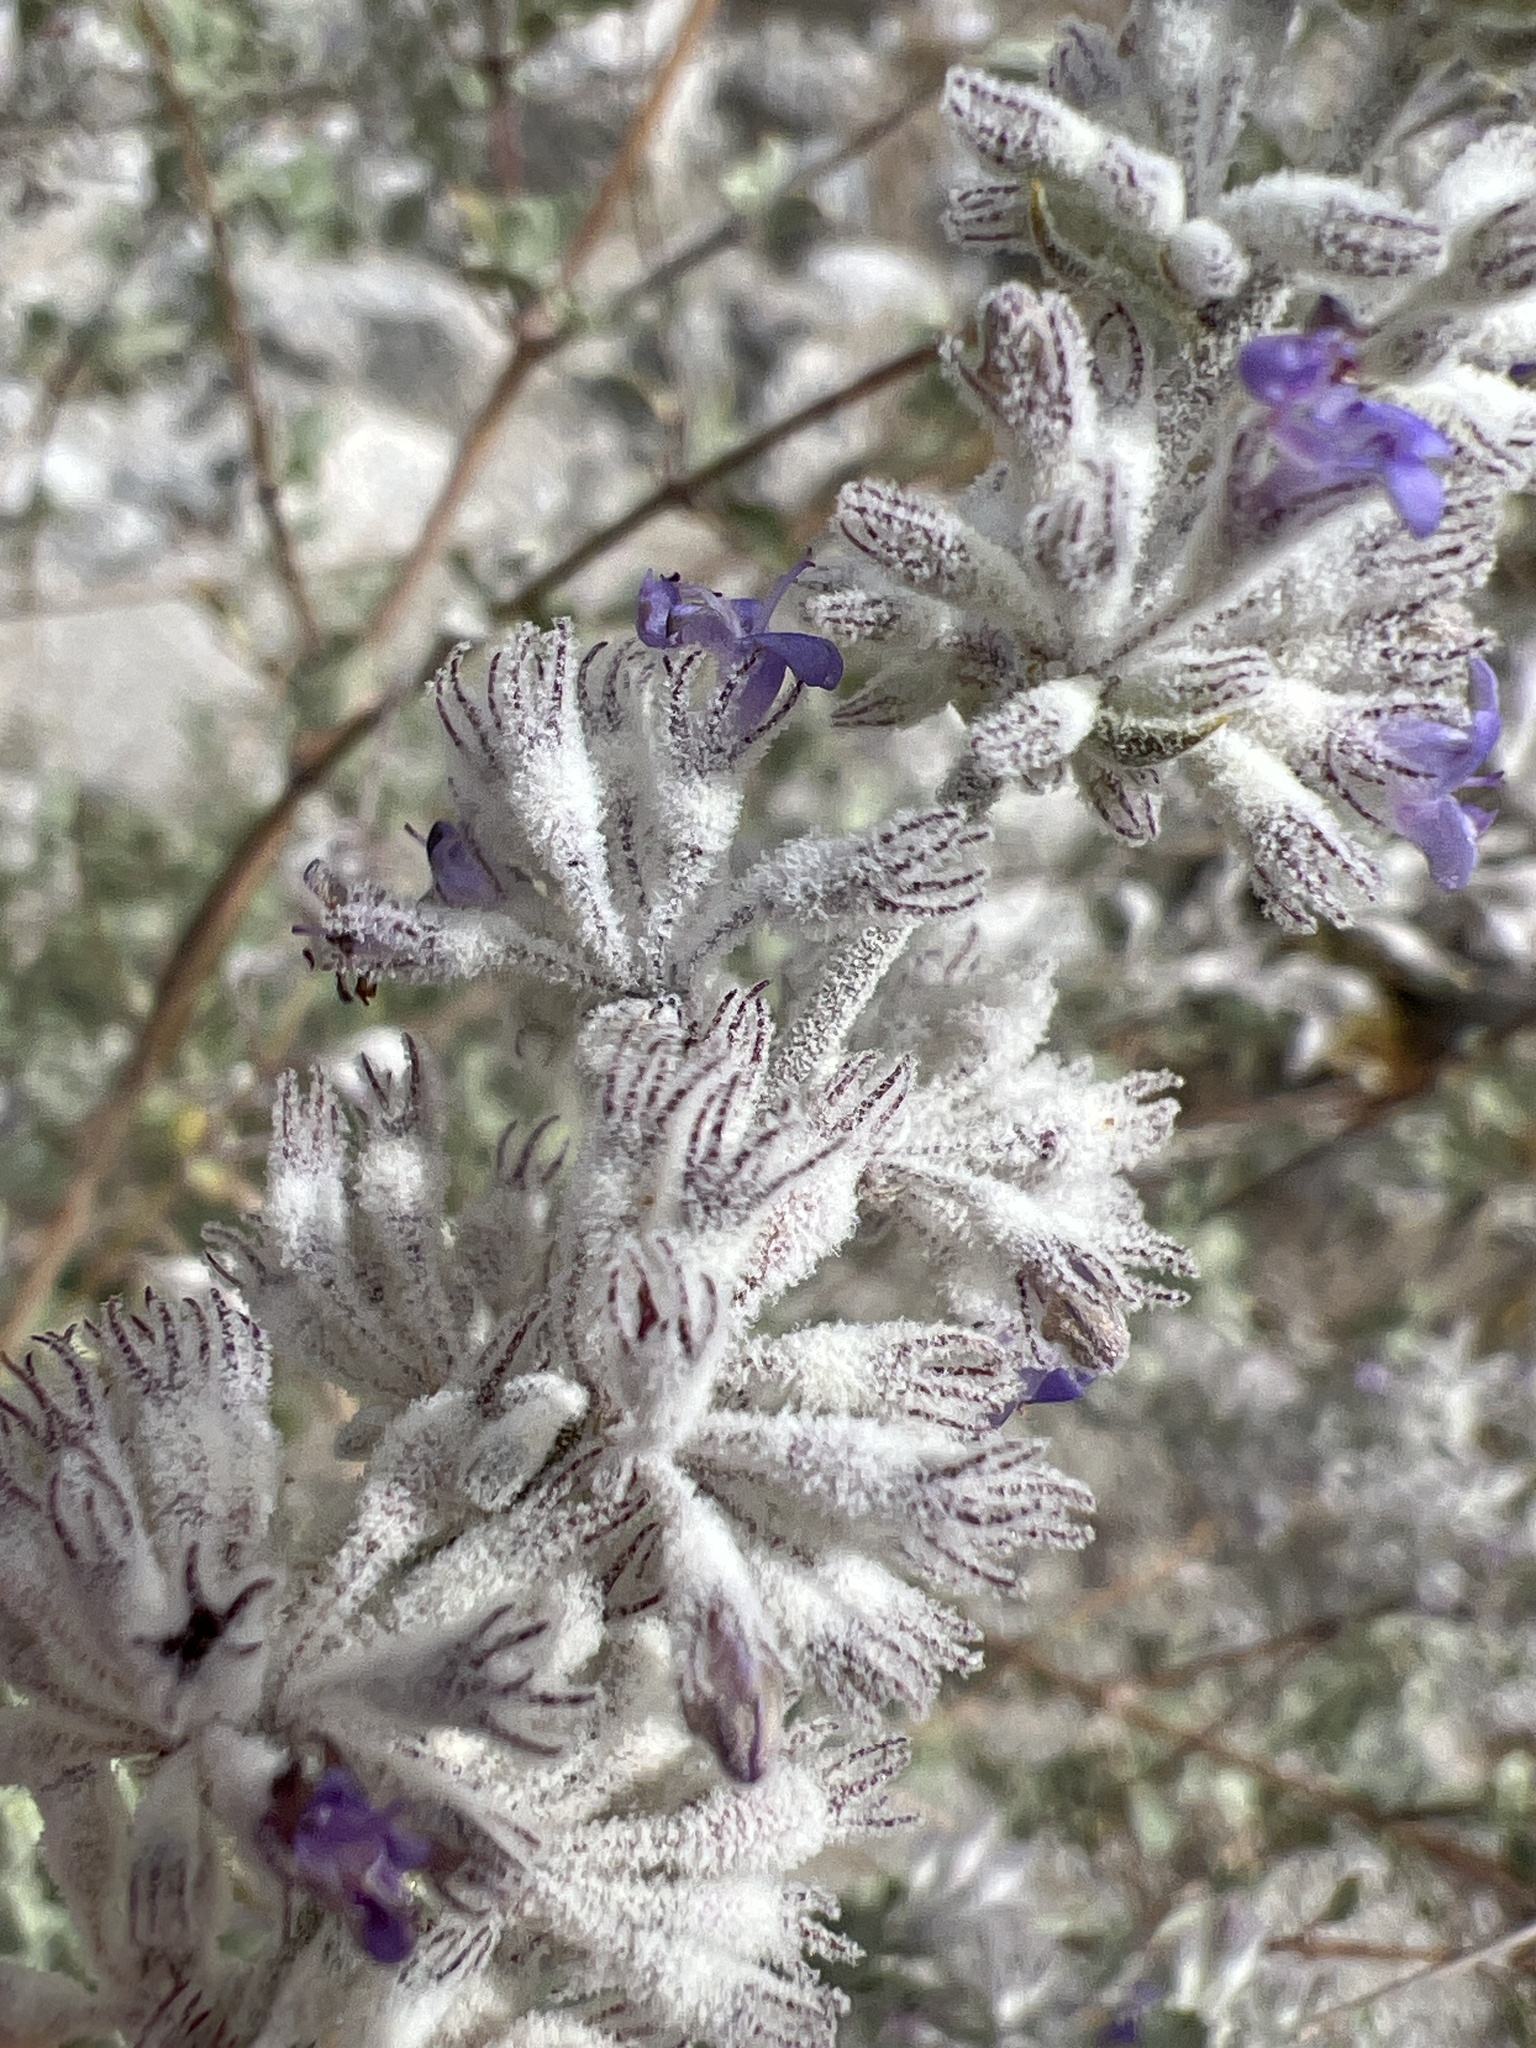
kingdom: Plantae
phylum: Tracheophyta
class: Magnoliopsida
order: Lamiales
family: Lamiaceae
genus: Condea
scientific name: Condea emoryi
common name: Chia
